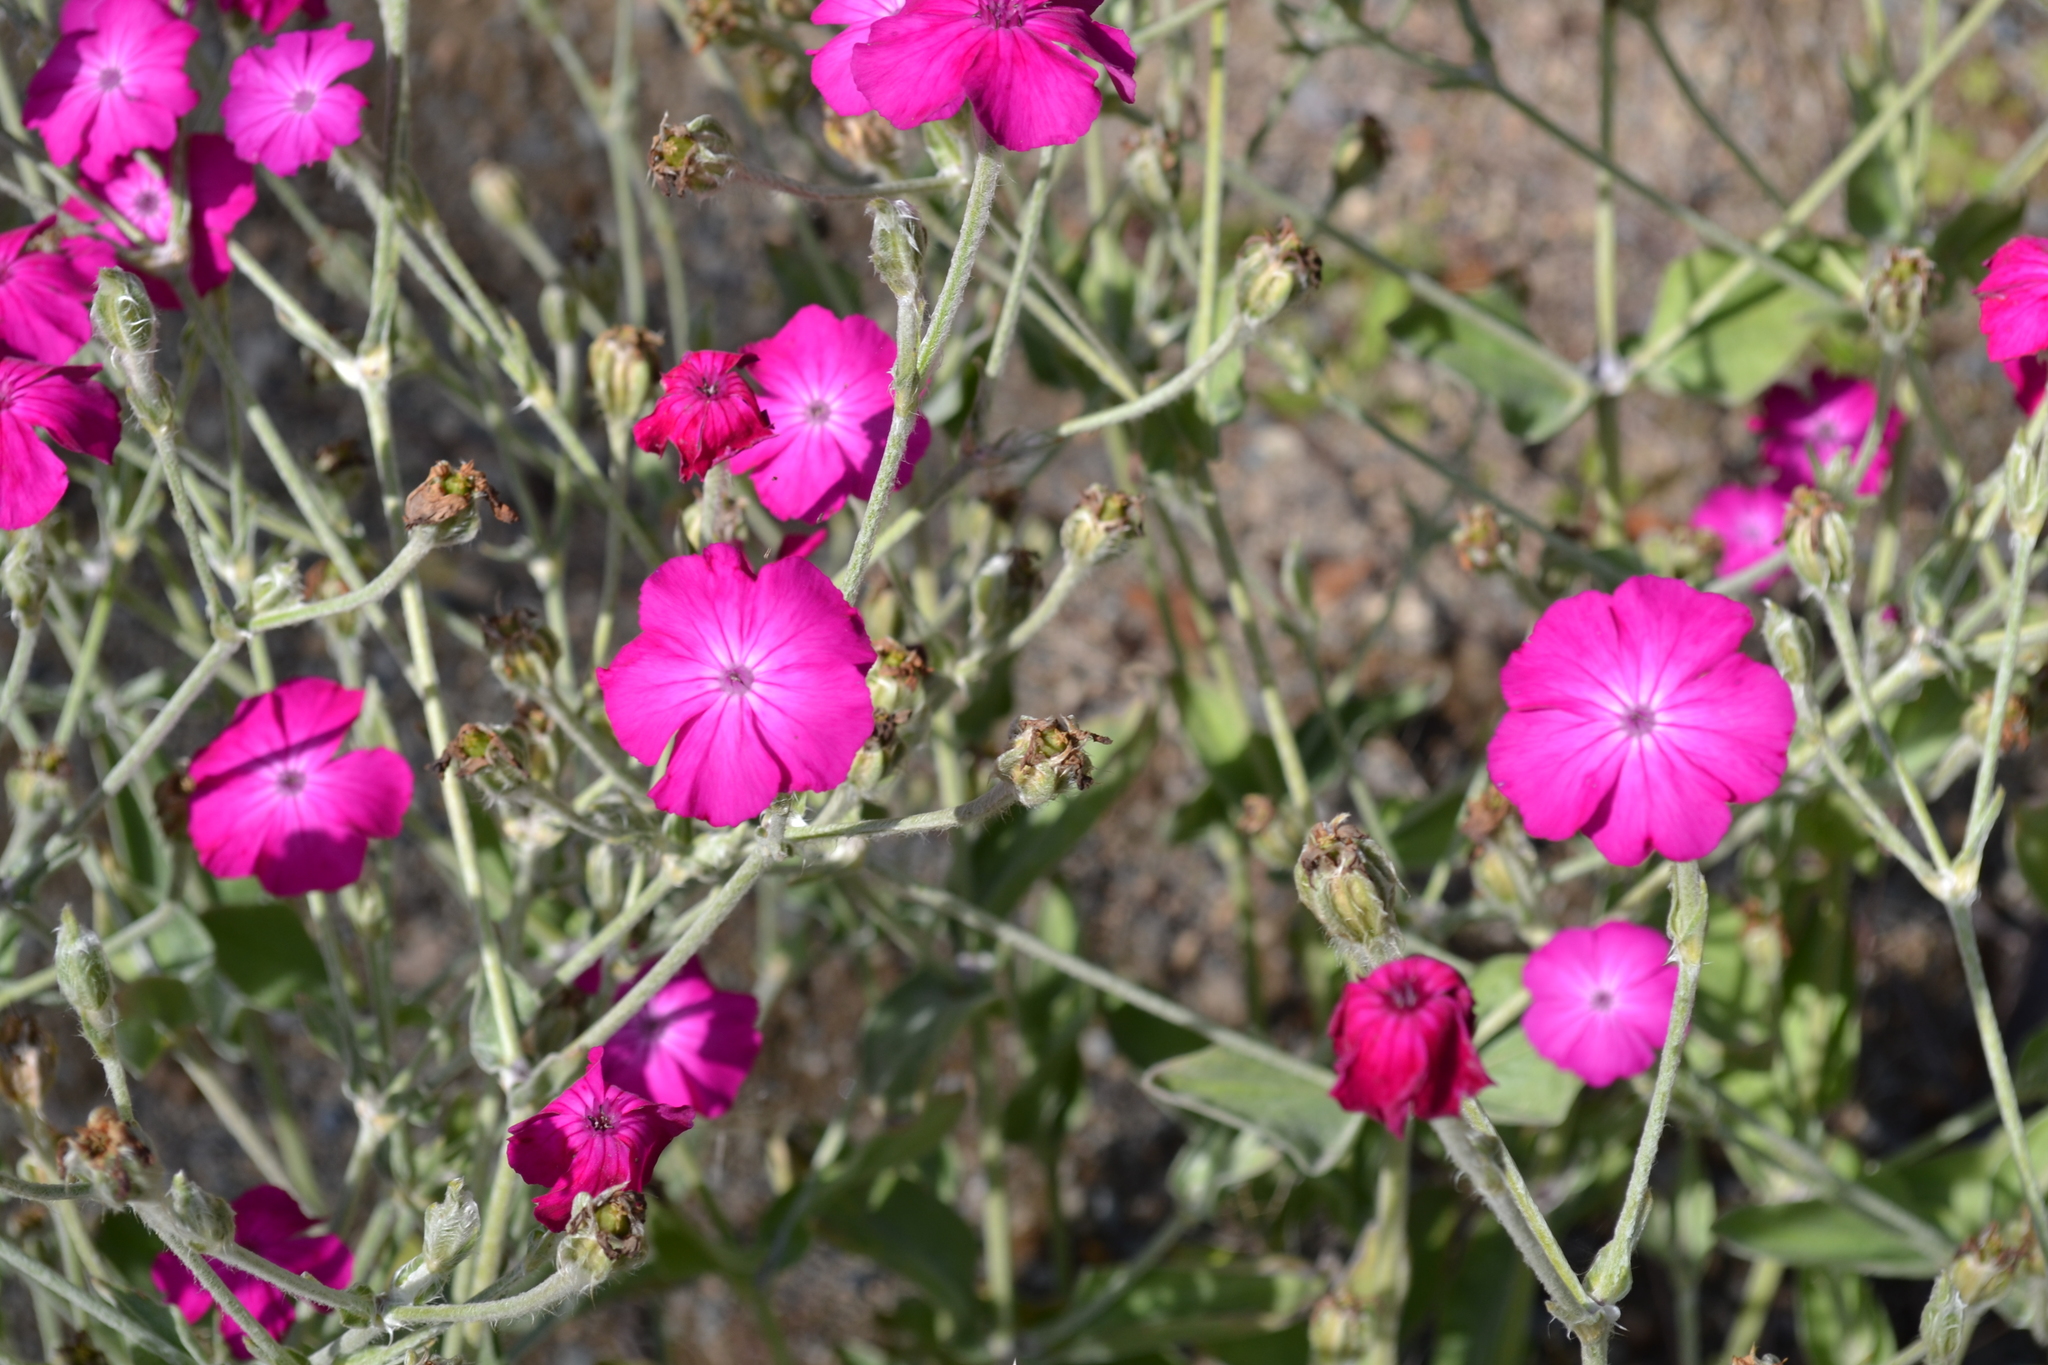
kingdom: Plantae
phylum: Tracheophyta
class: Magnoliopsida
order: Caryophyllales
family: Caryophyllaceae
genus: Silene
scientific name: Silene coronaria
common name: Rose campion
